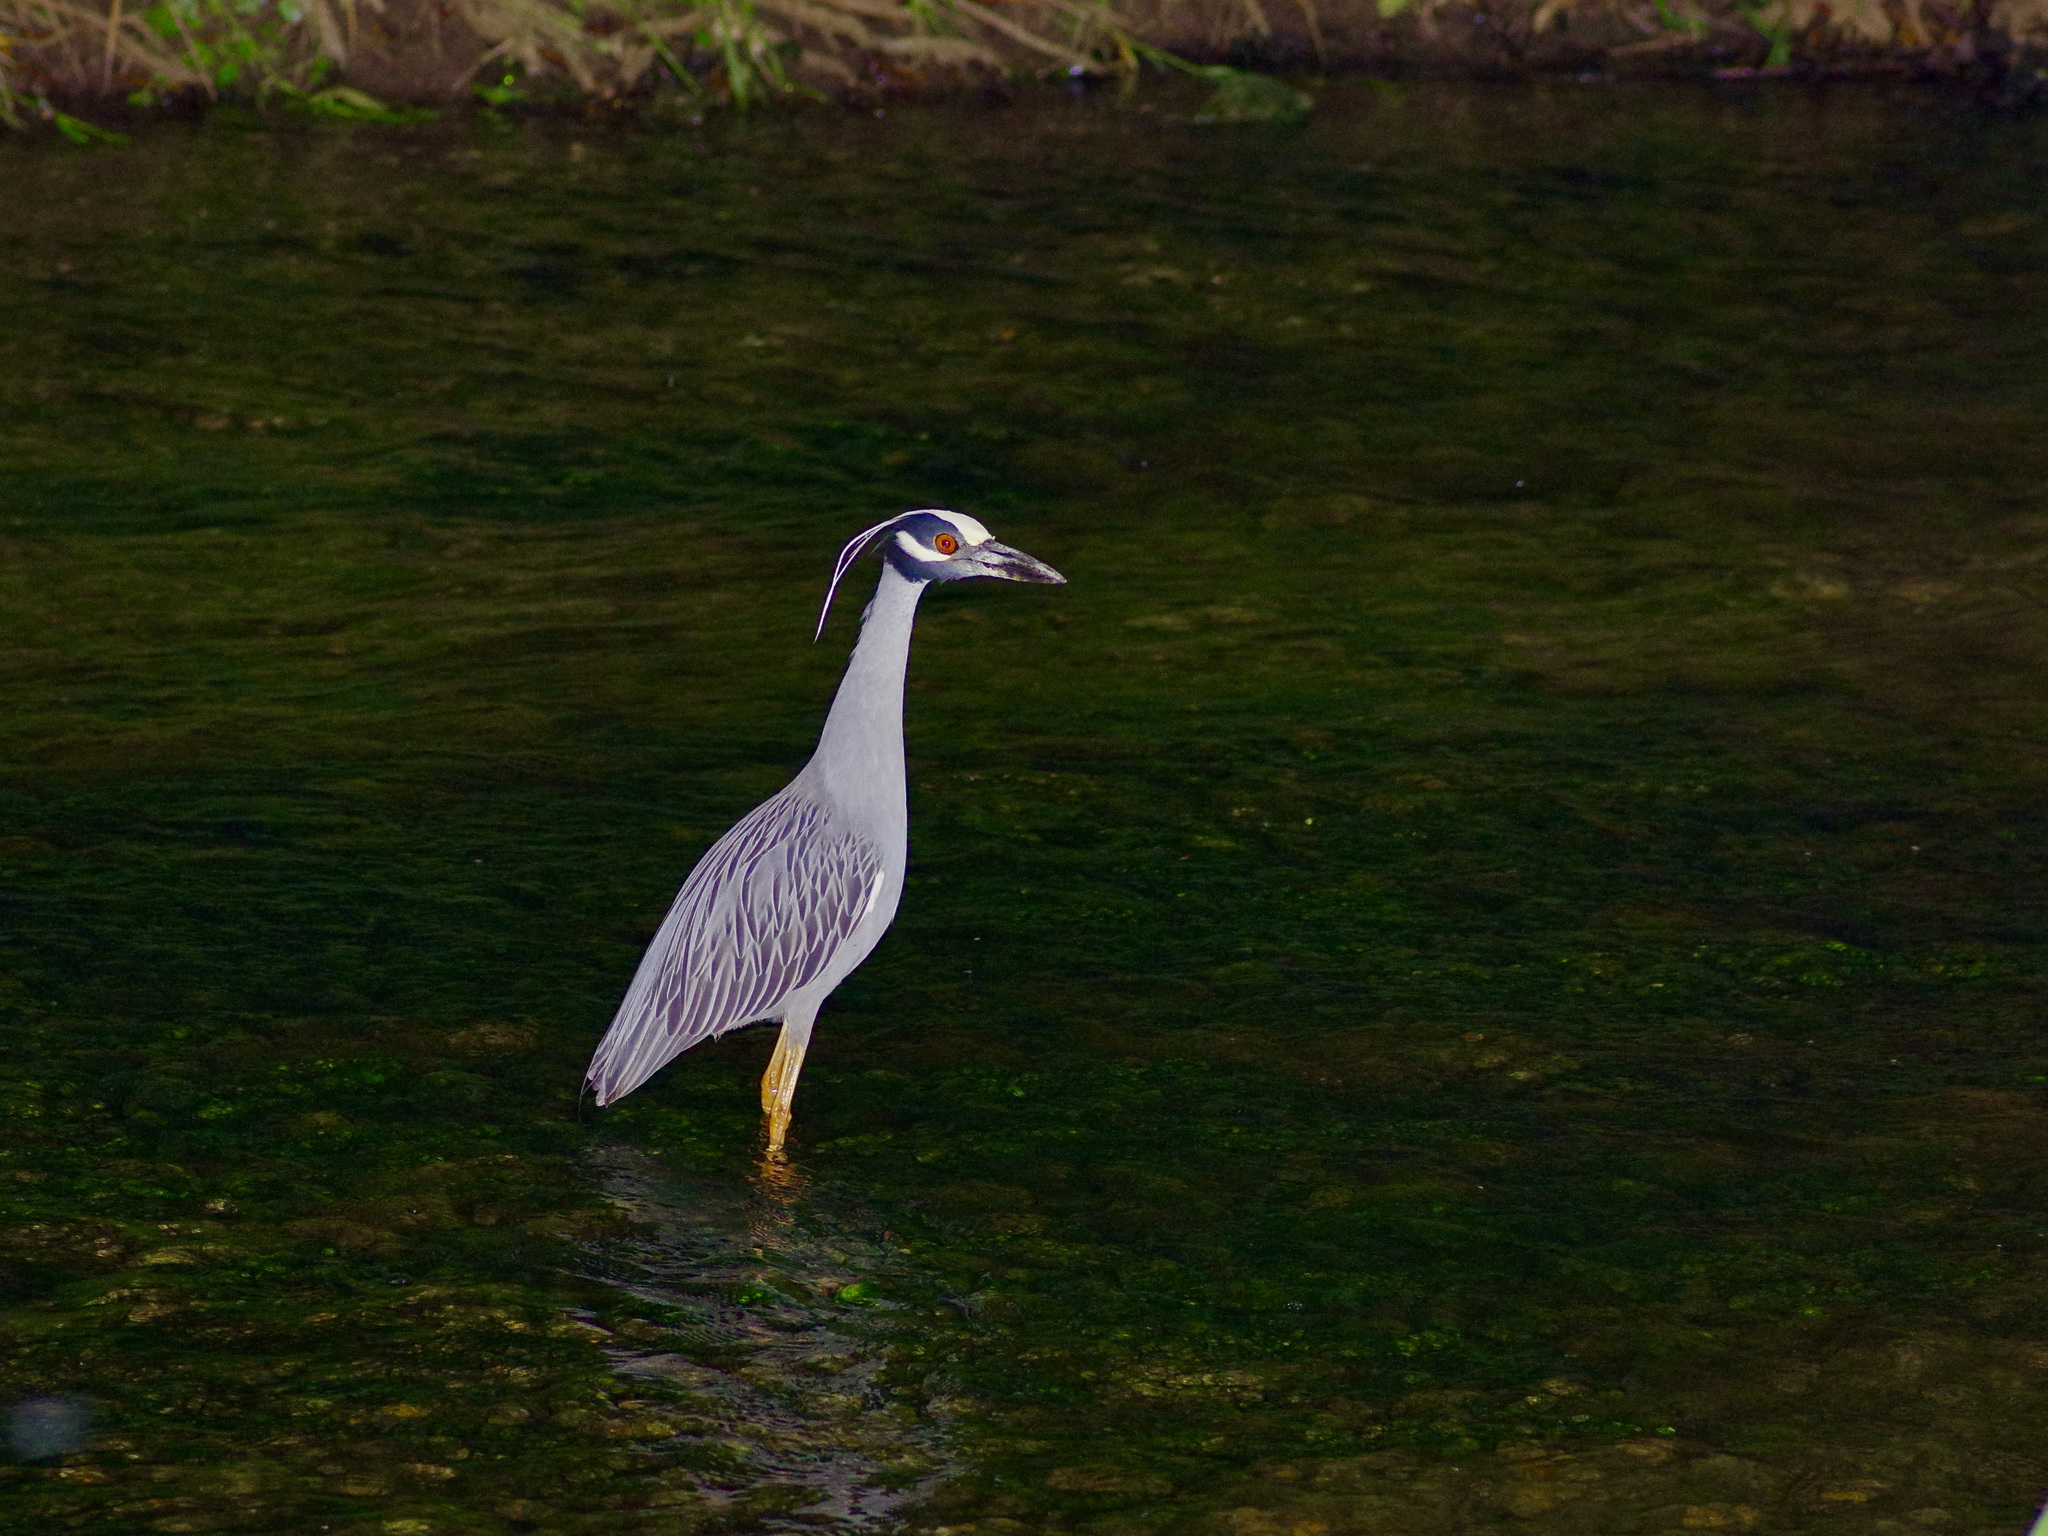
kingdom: Animalia
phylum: Chordata
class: Aves
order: Pelecaniformes
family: Ardeidae
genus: Nyctanassa
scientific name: Nyctanassa violacea
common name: Yellow-crowned night heron
